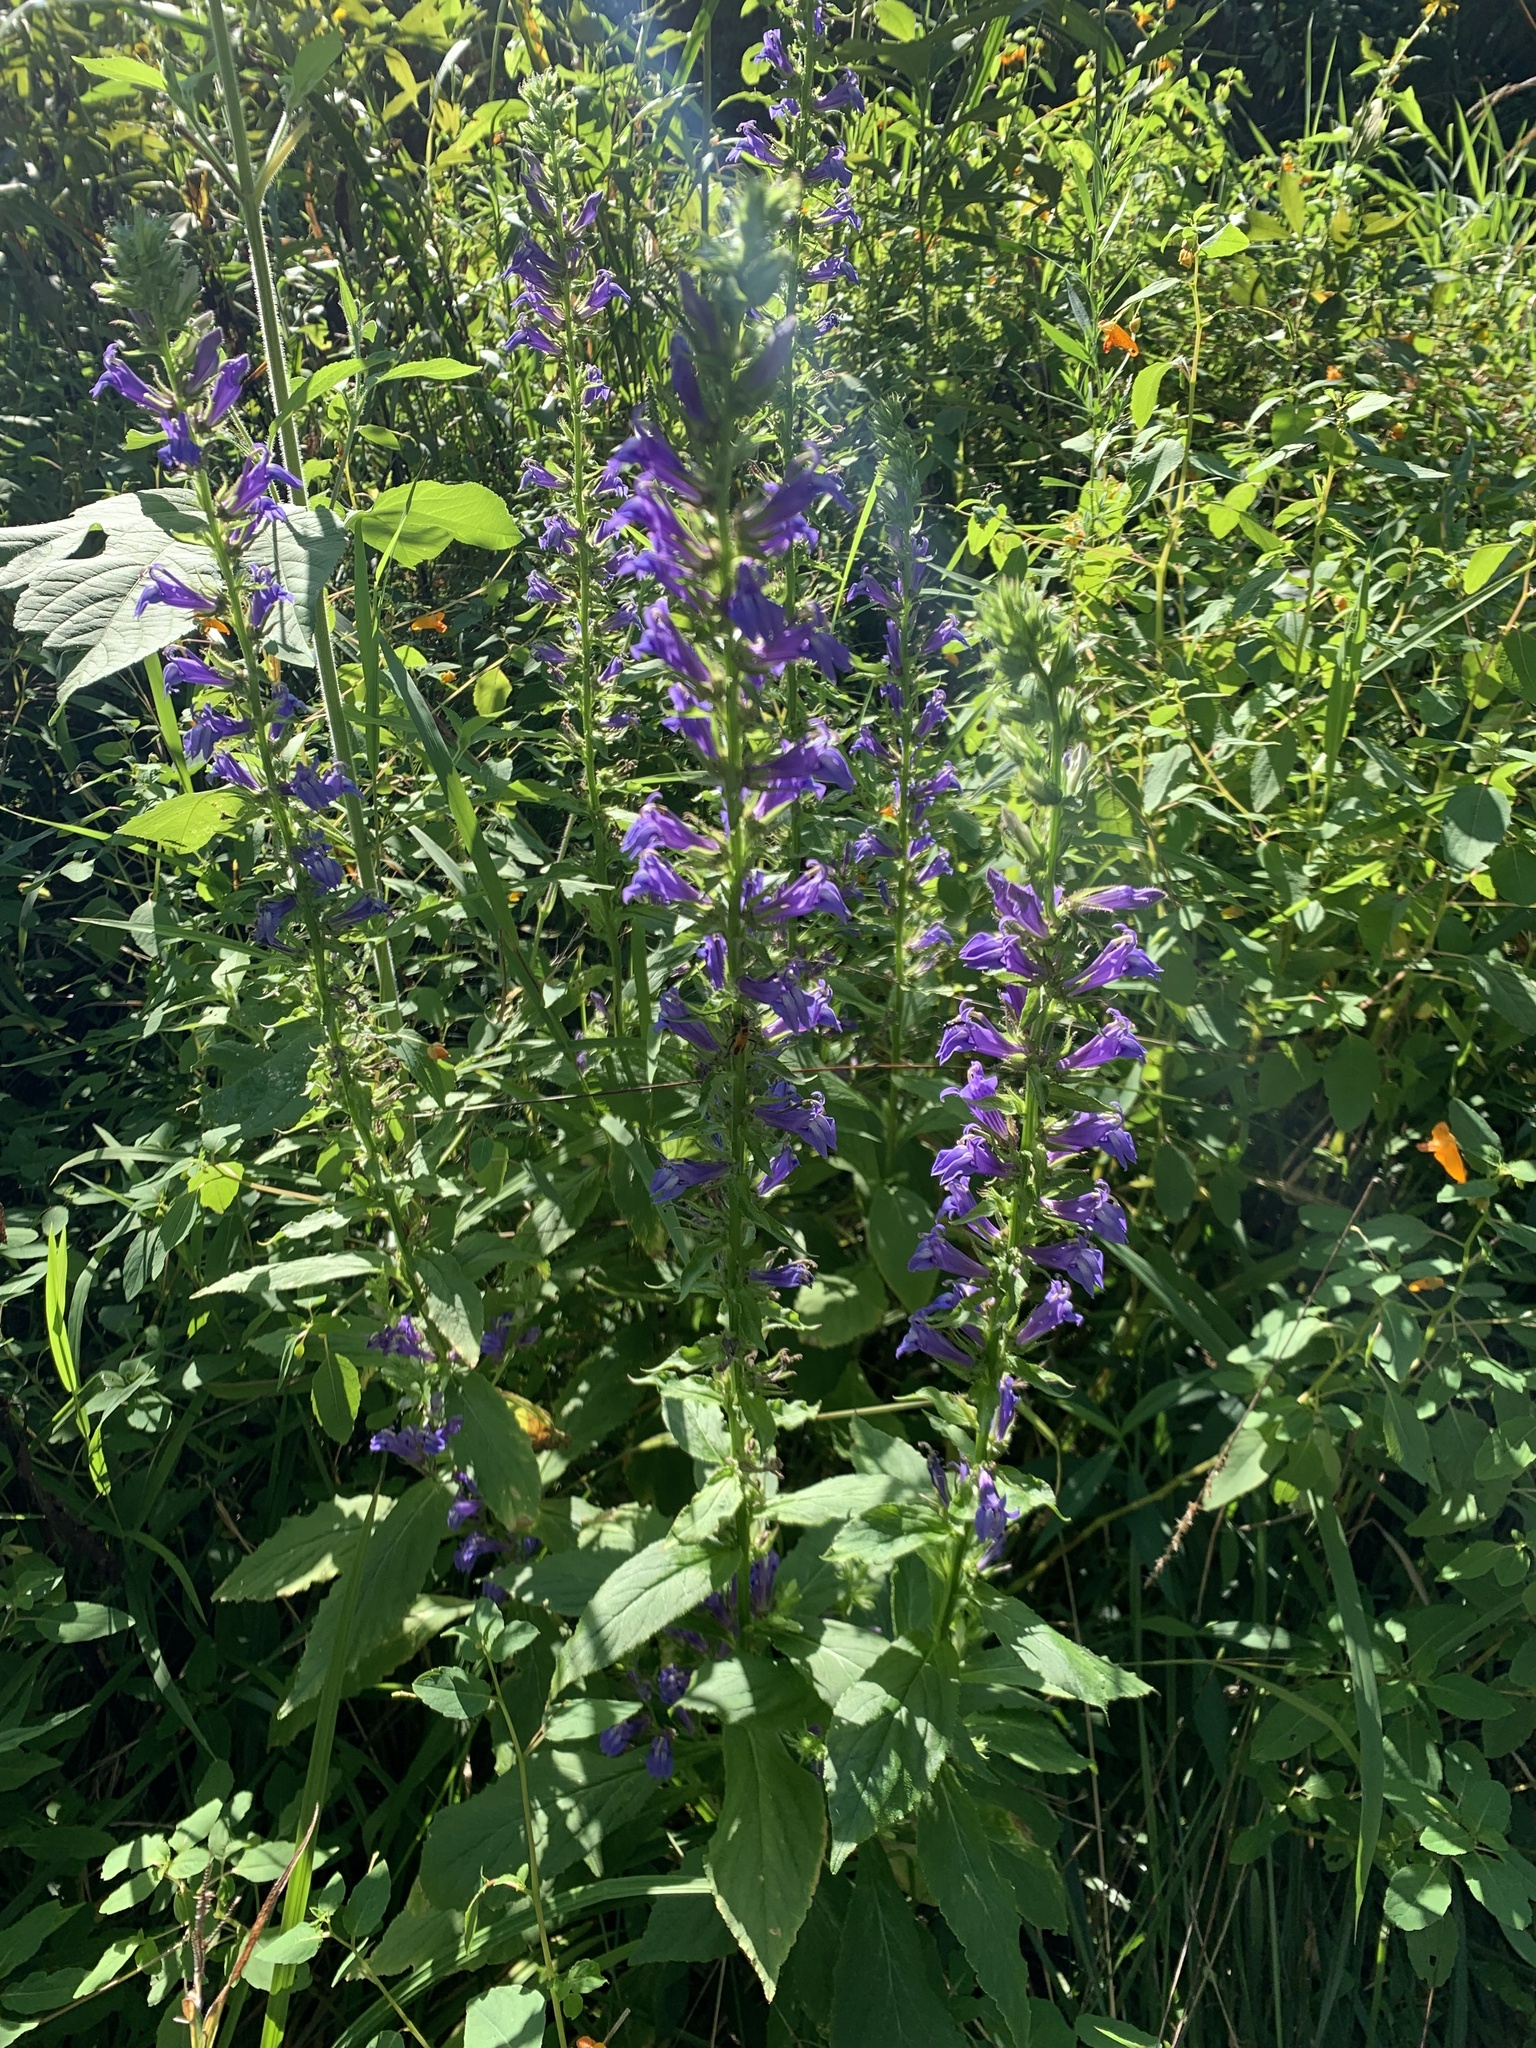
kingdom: Plantae
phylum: Tracheophyta
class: Magnoliopsida
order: Asterales
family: Campanulaceae
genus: Lobelia
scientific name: Lobelia siphilitica
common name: Great lobelia
